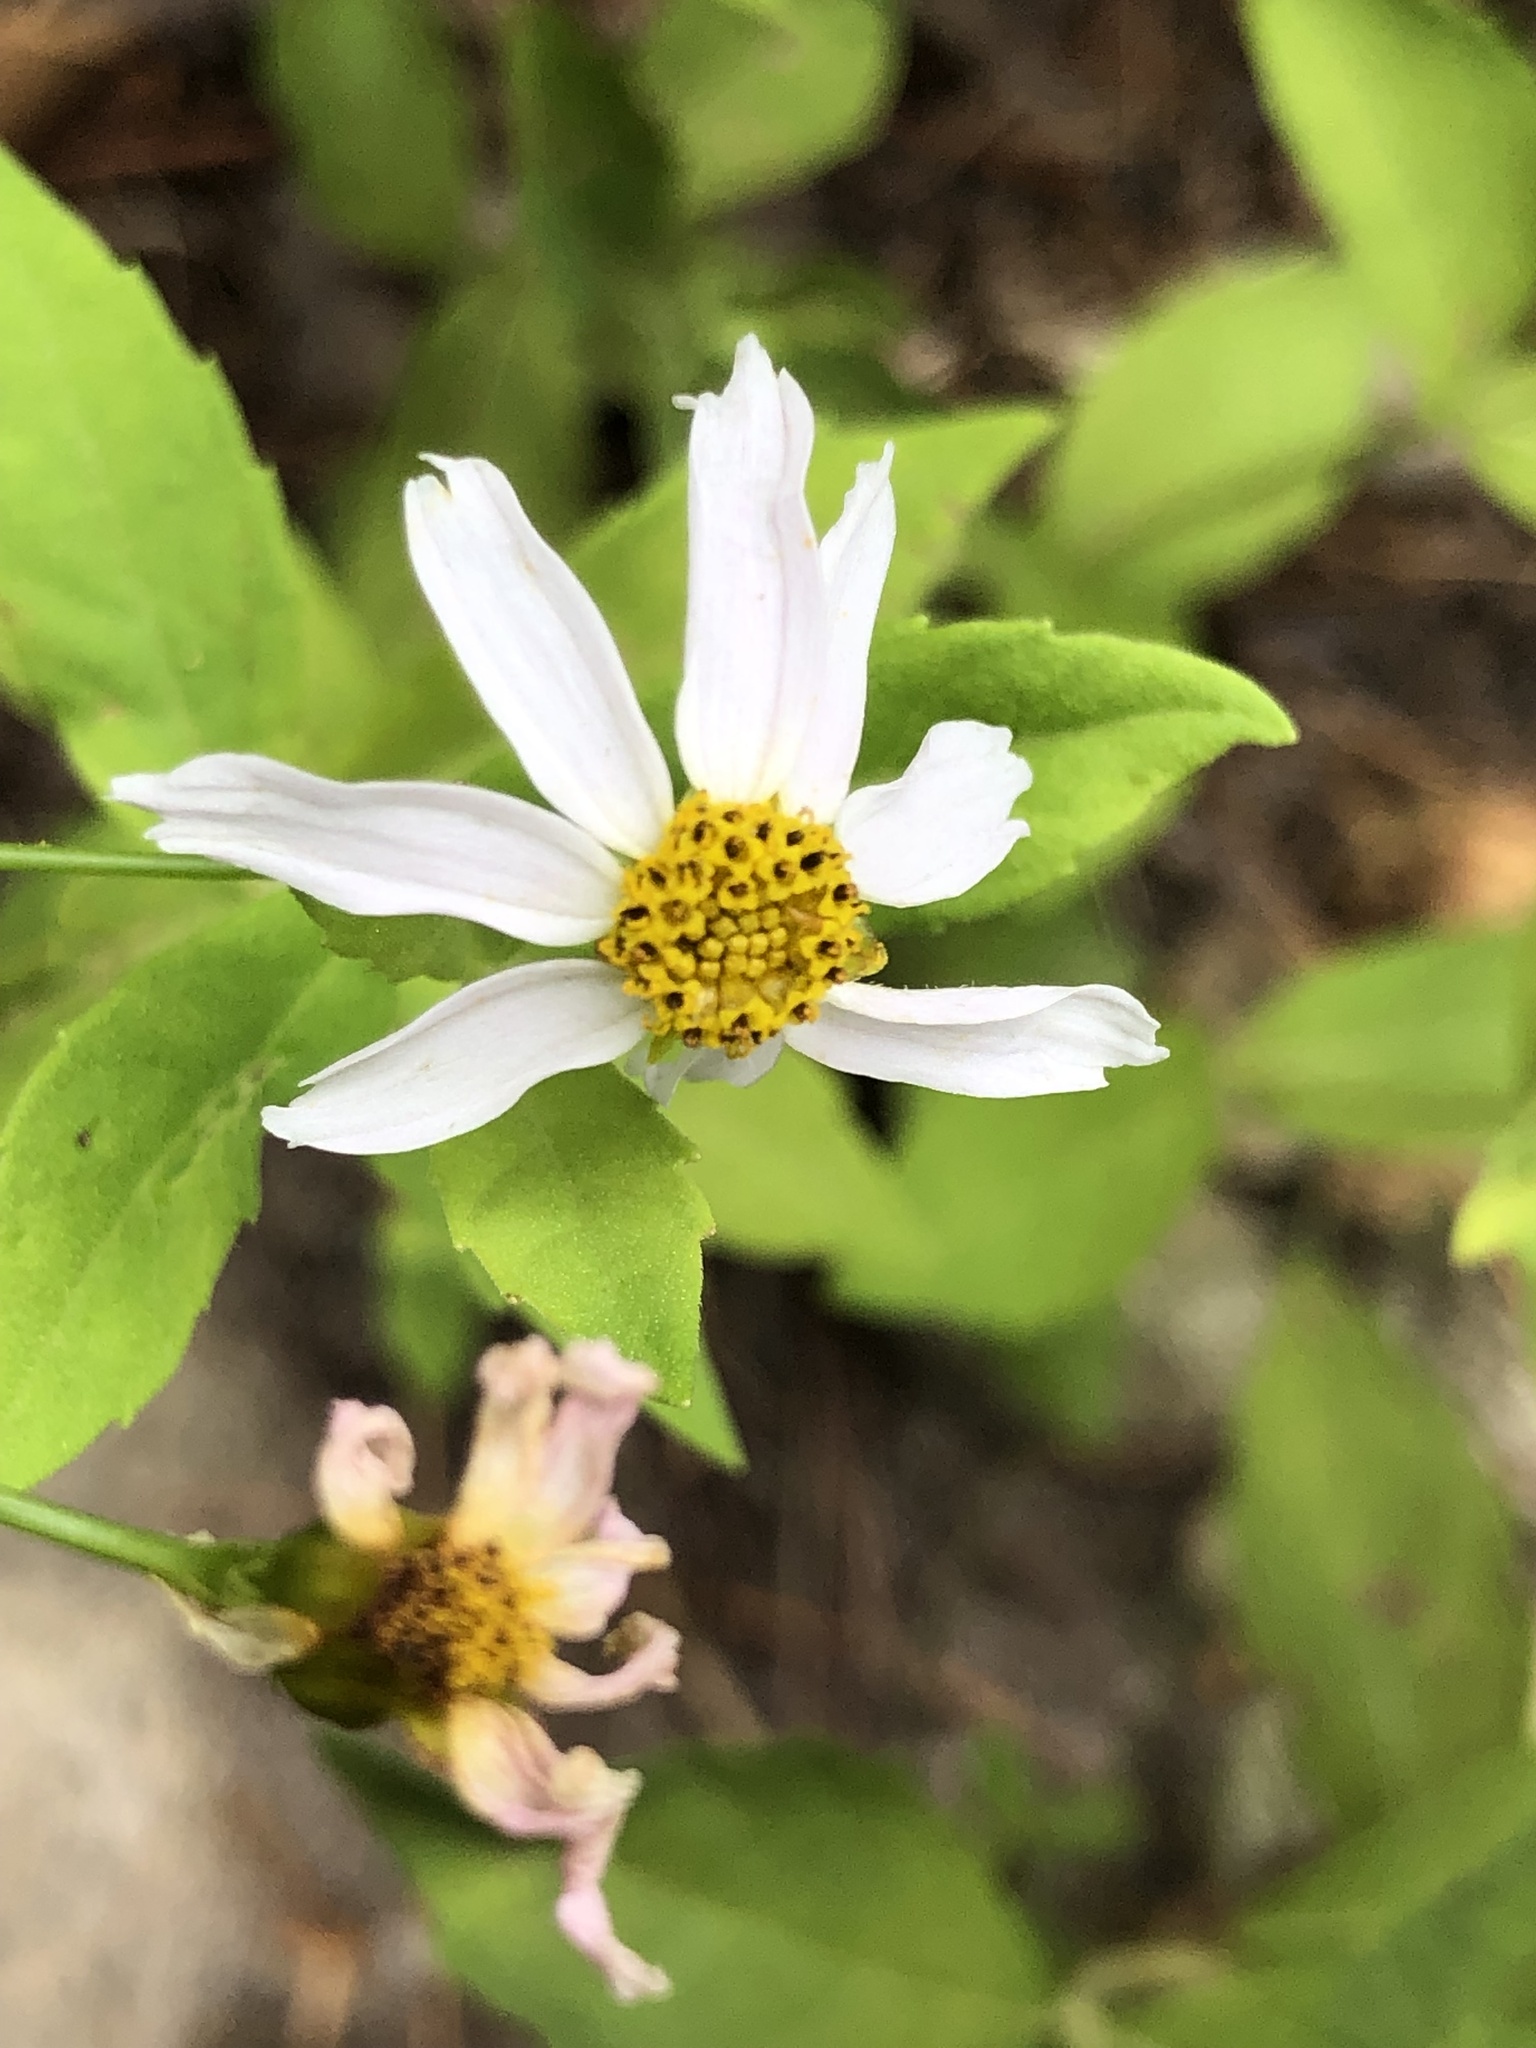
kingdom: Plantae
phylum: Tracheophyta
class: Magnoliopsida
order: Asterales
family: Asteraceae
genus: Ionactis
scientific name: Ionactis linariifolia
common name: Flax-leaf aster
